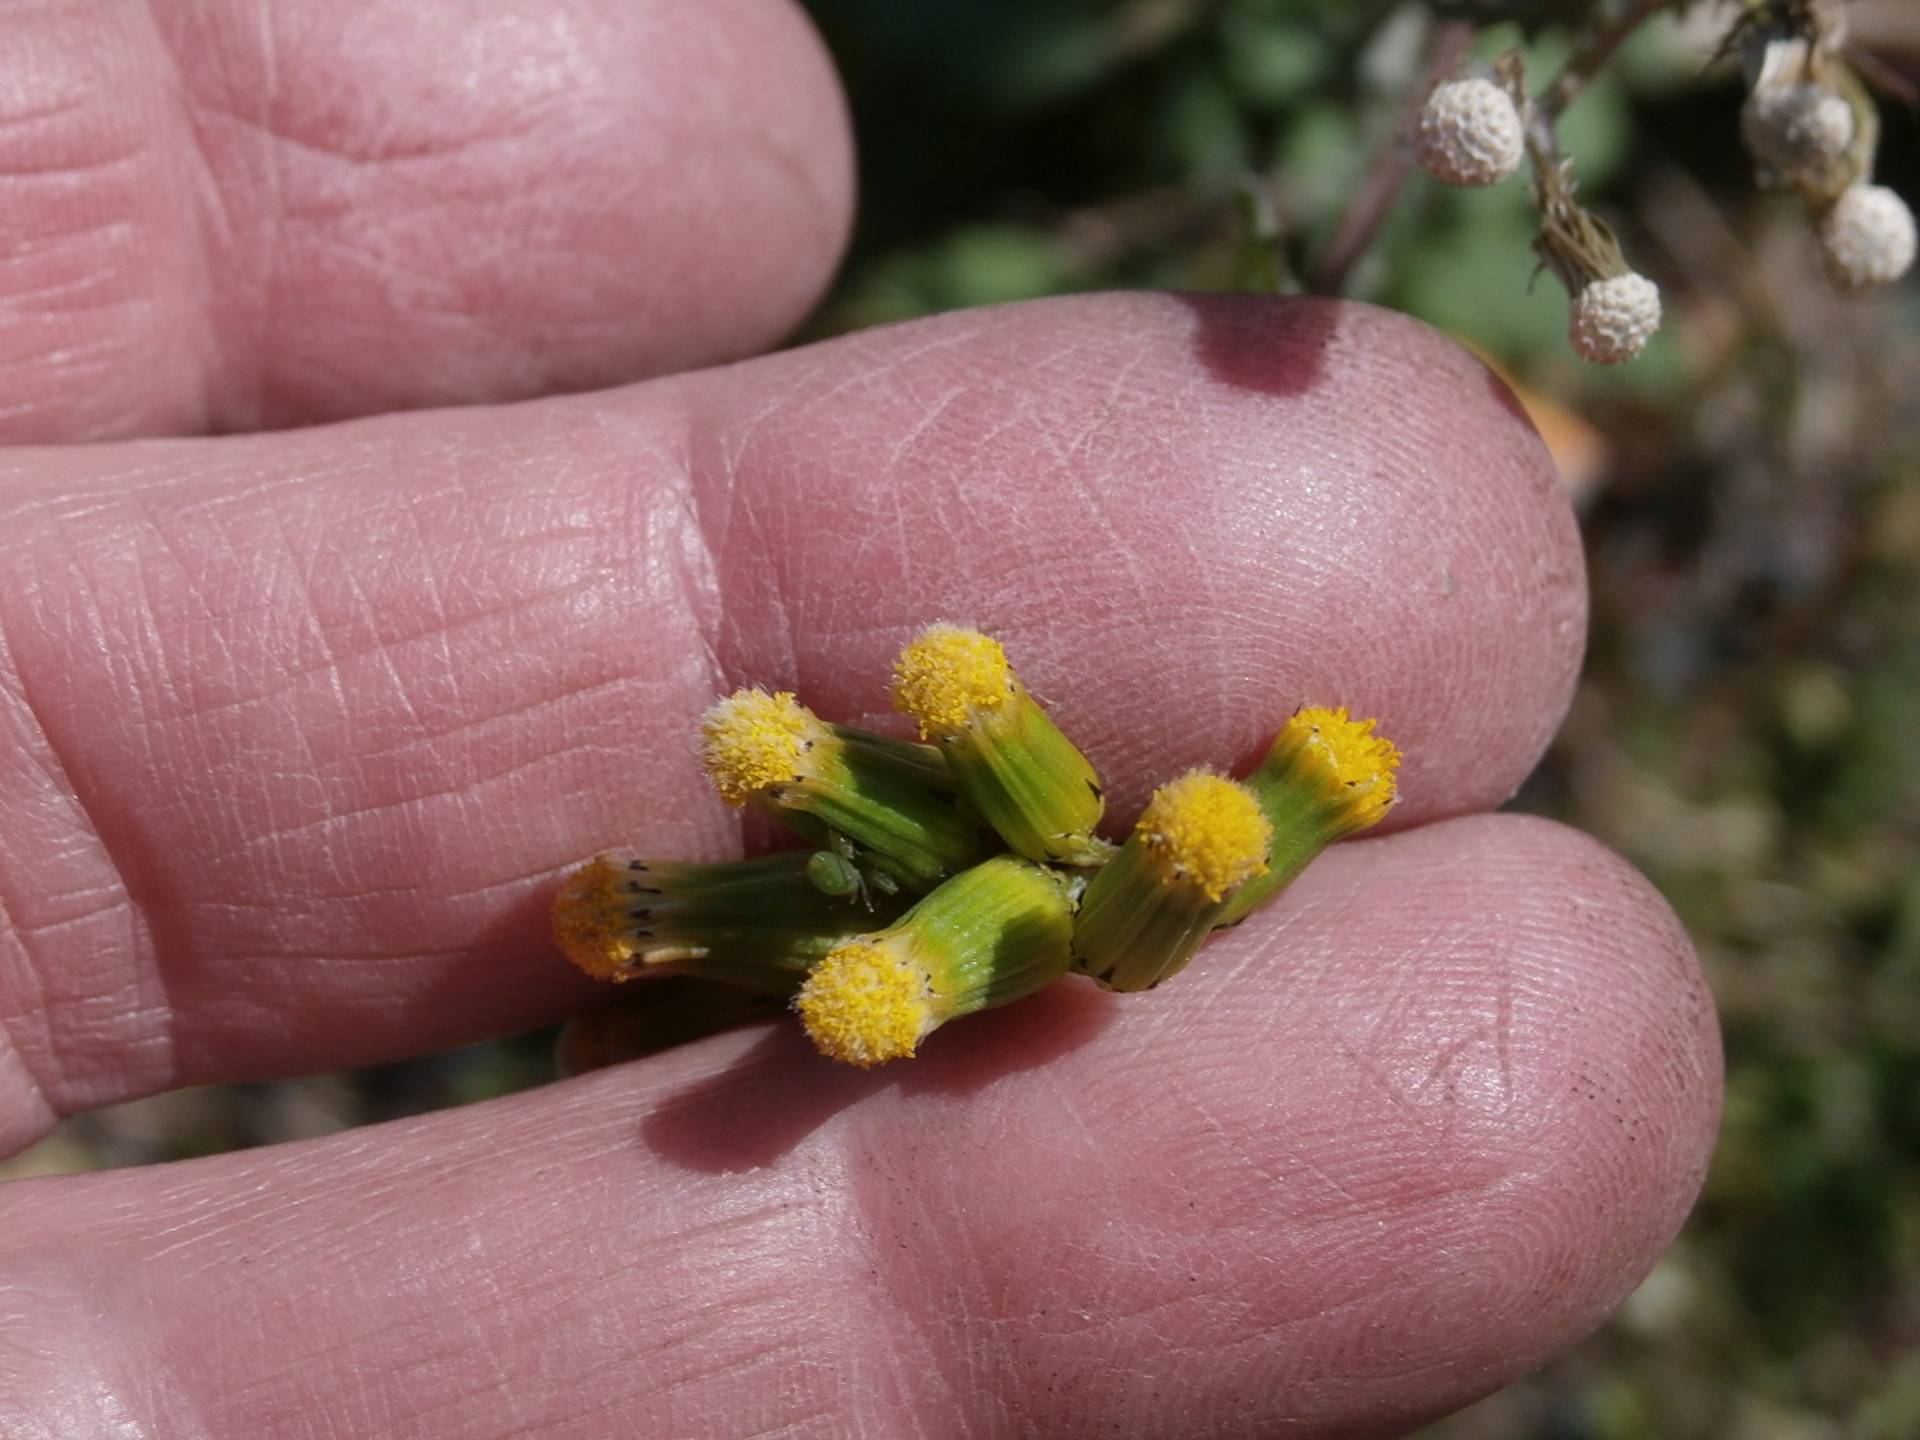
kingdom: Plantae
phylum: Tracheophyta
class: Magnoliopsida
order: Asterales
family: Asteraceae
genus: Senecio
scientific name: Senecio vulgaris
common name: Old-man-in-the-spring
